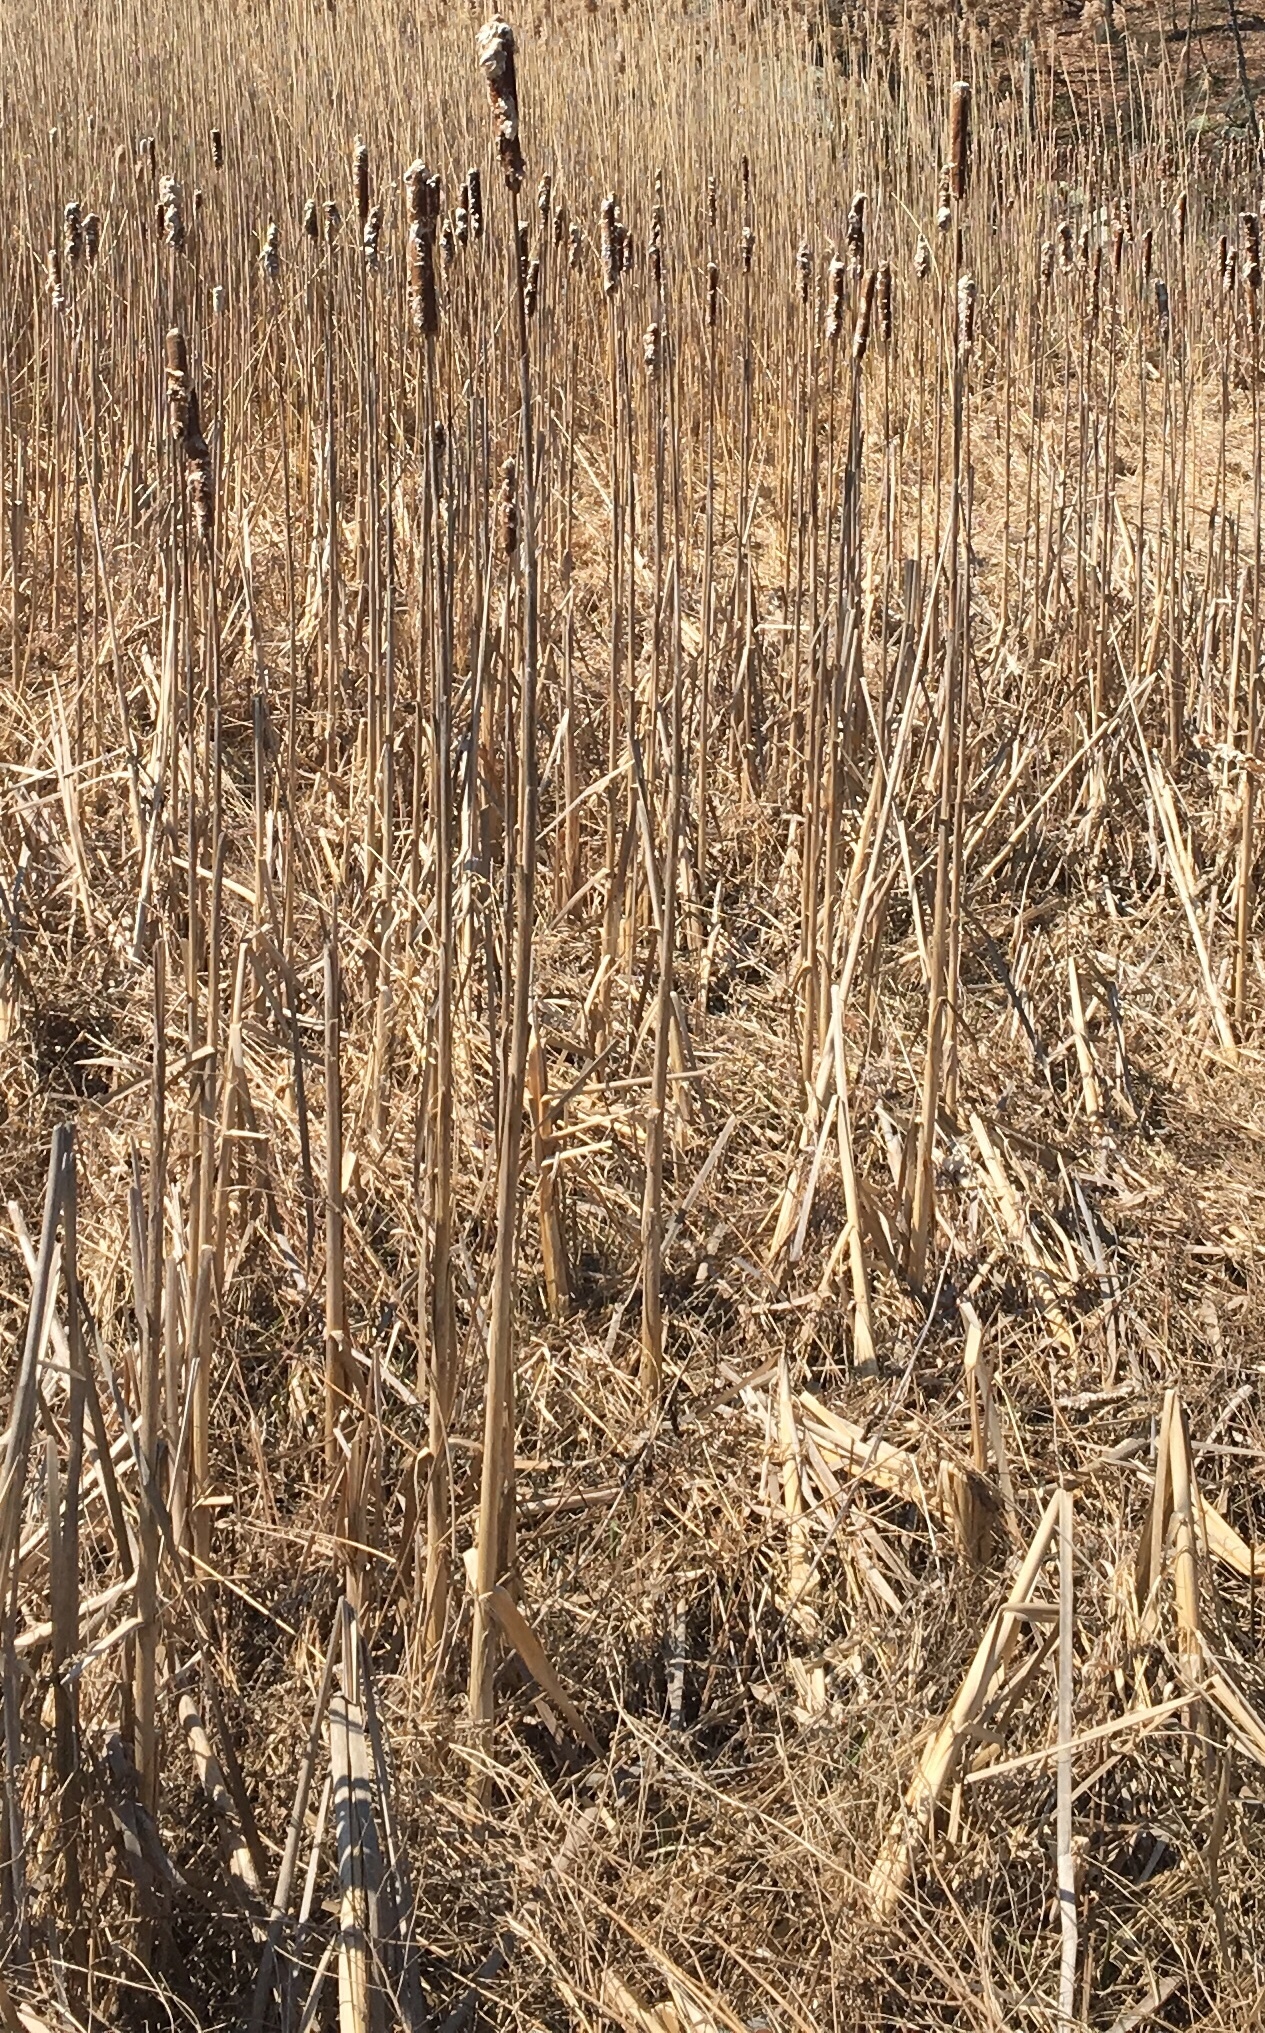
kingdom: Plantae
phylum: Tracheophyta
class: Liliopsida
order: Poales
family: Typhaceae
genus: Typha
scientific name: Typha
